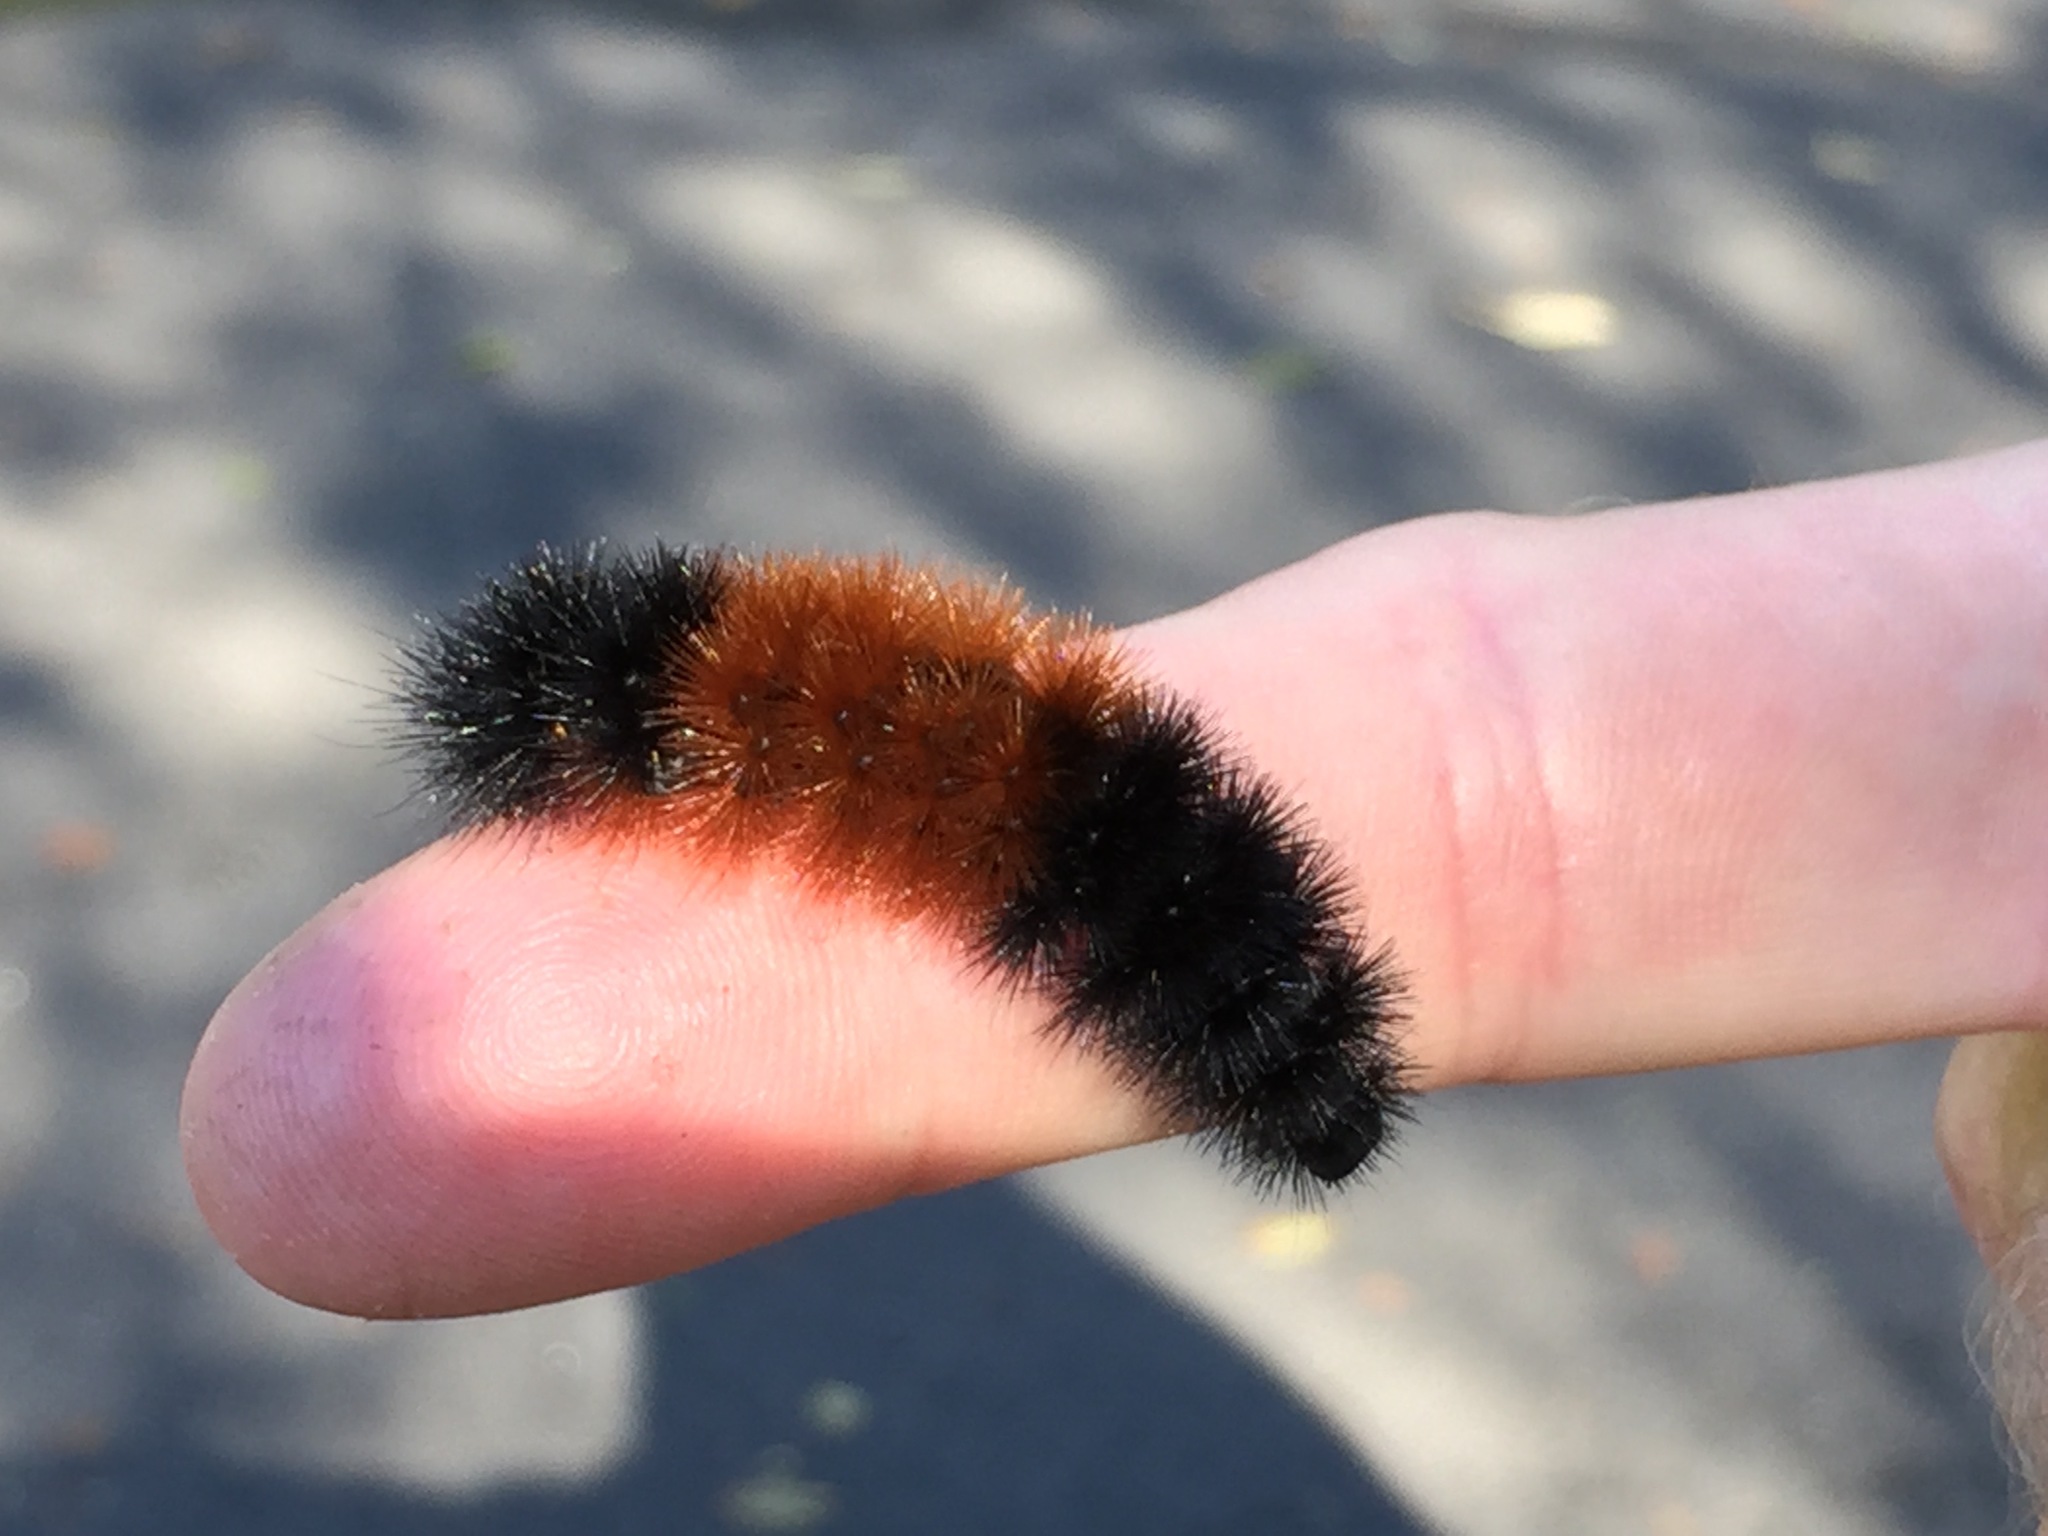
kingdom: Animalia
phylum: Arthropoda
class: Insecta
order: Lepidoptera
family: Erebidae
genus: Pyrrharctia
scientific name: Pyrrharctia isabella
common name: Isabella tiger moth
